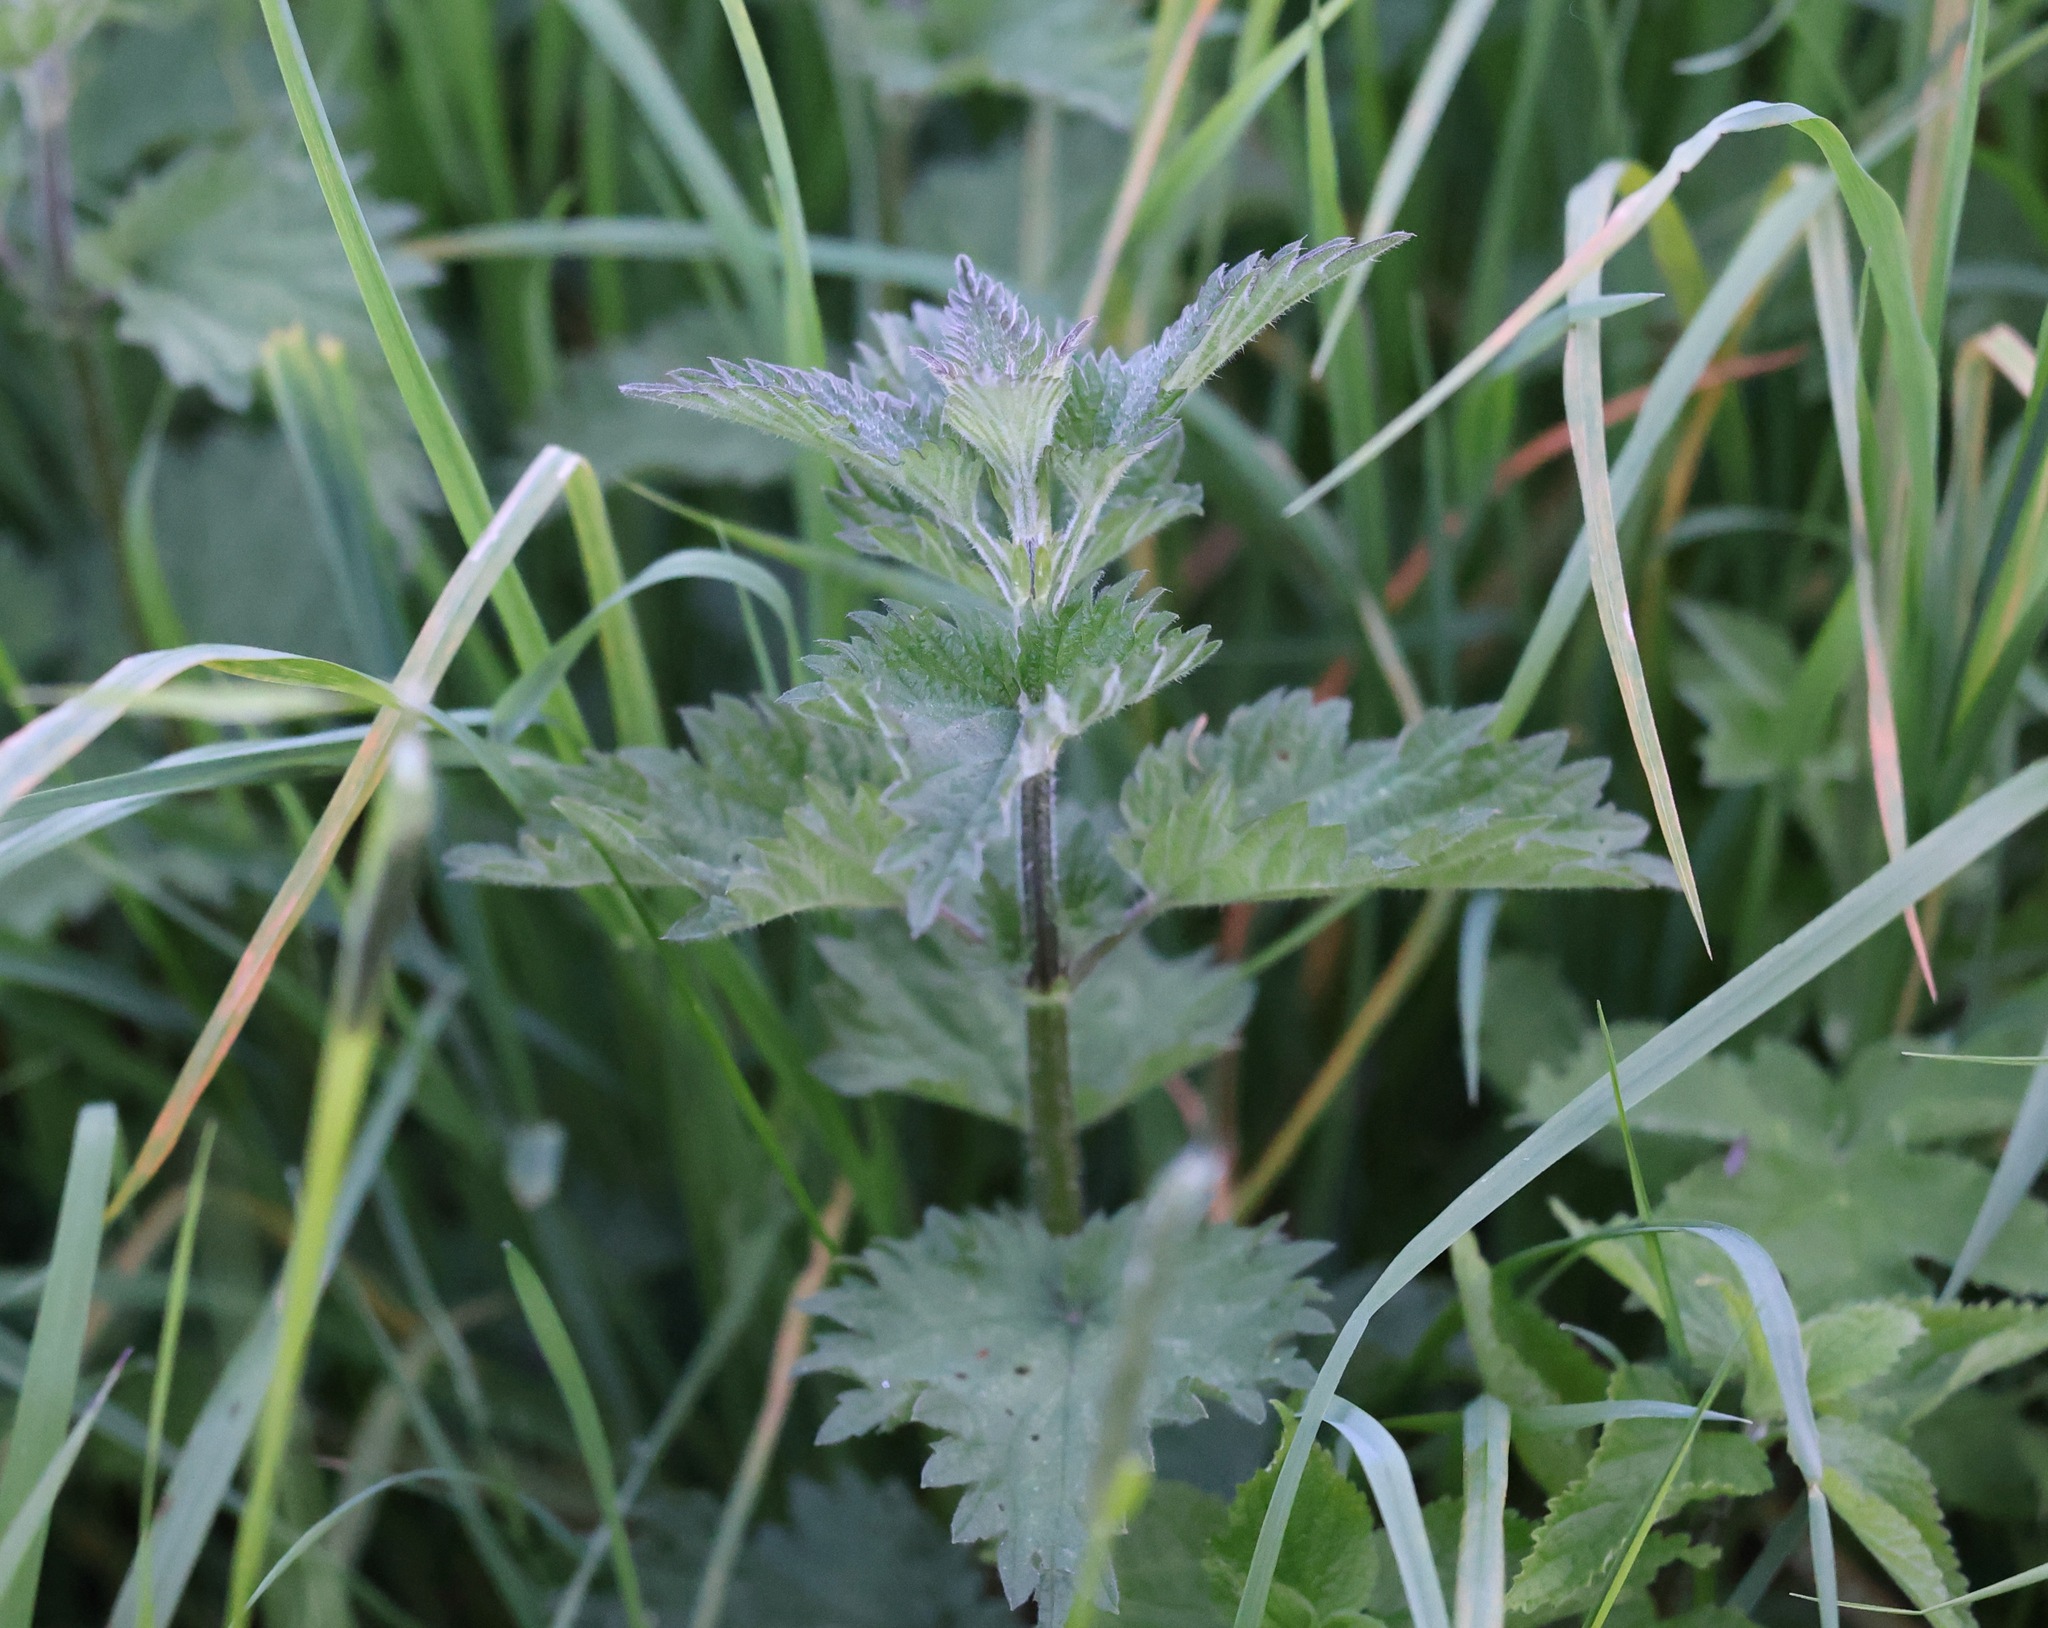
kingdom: Plantae
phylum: Tracheophyta
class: Magnoliopsida
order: Rosales
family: Urticaceae
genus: Urtica
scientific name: Urtica dioica
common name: Common nettle
